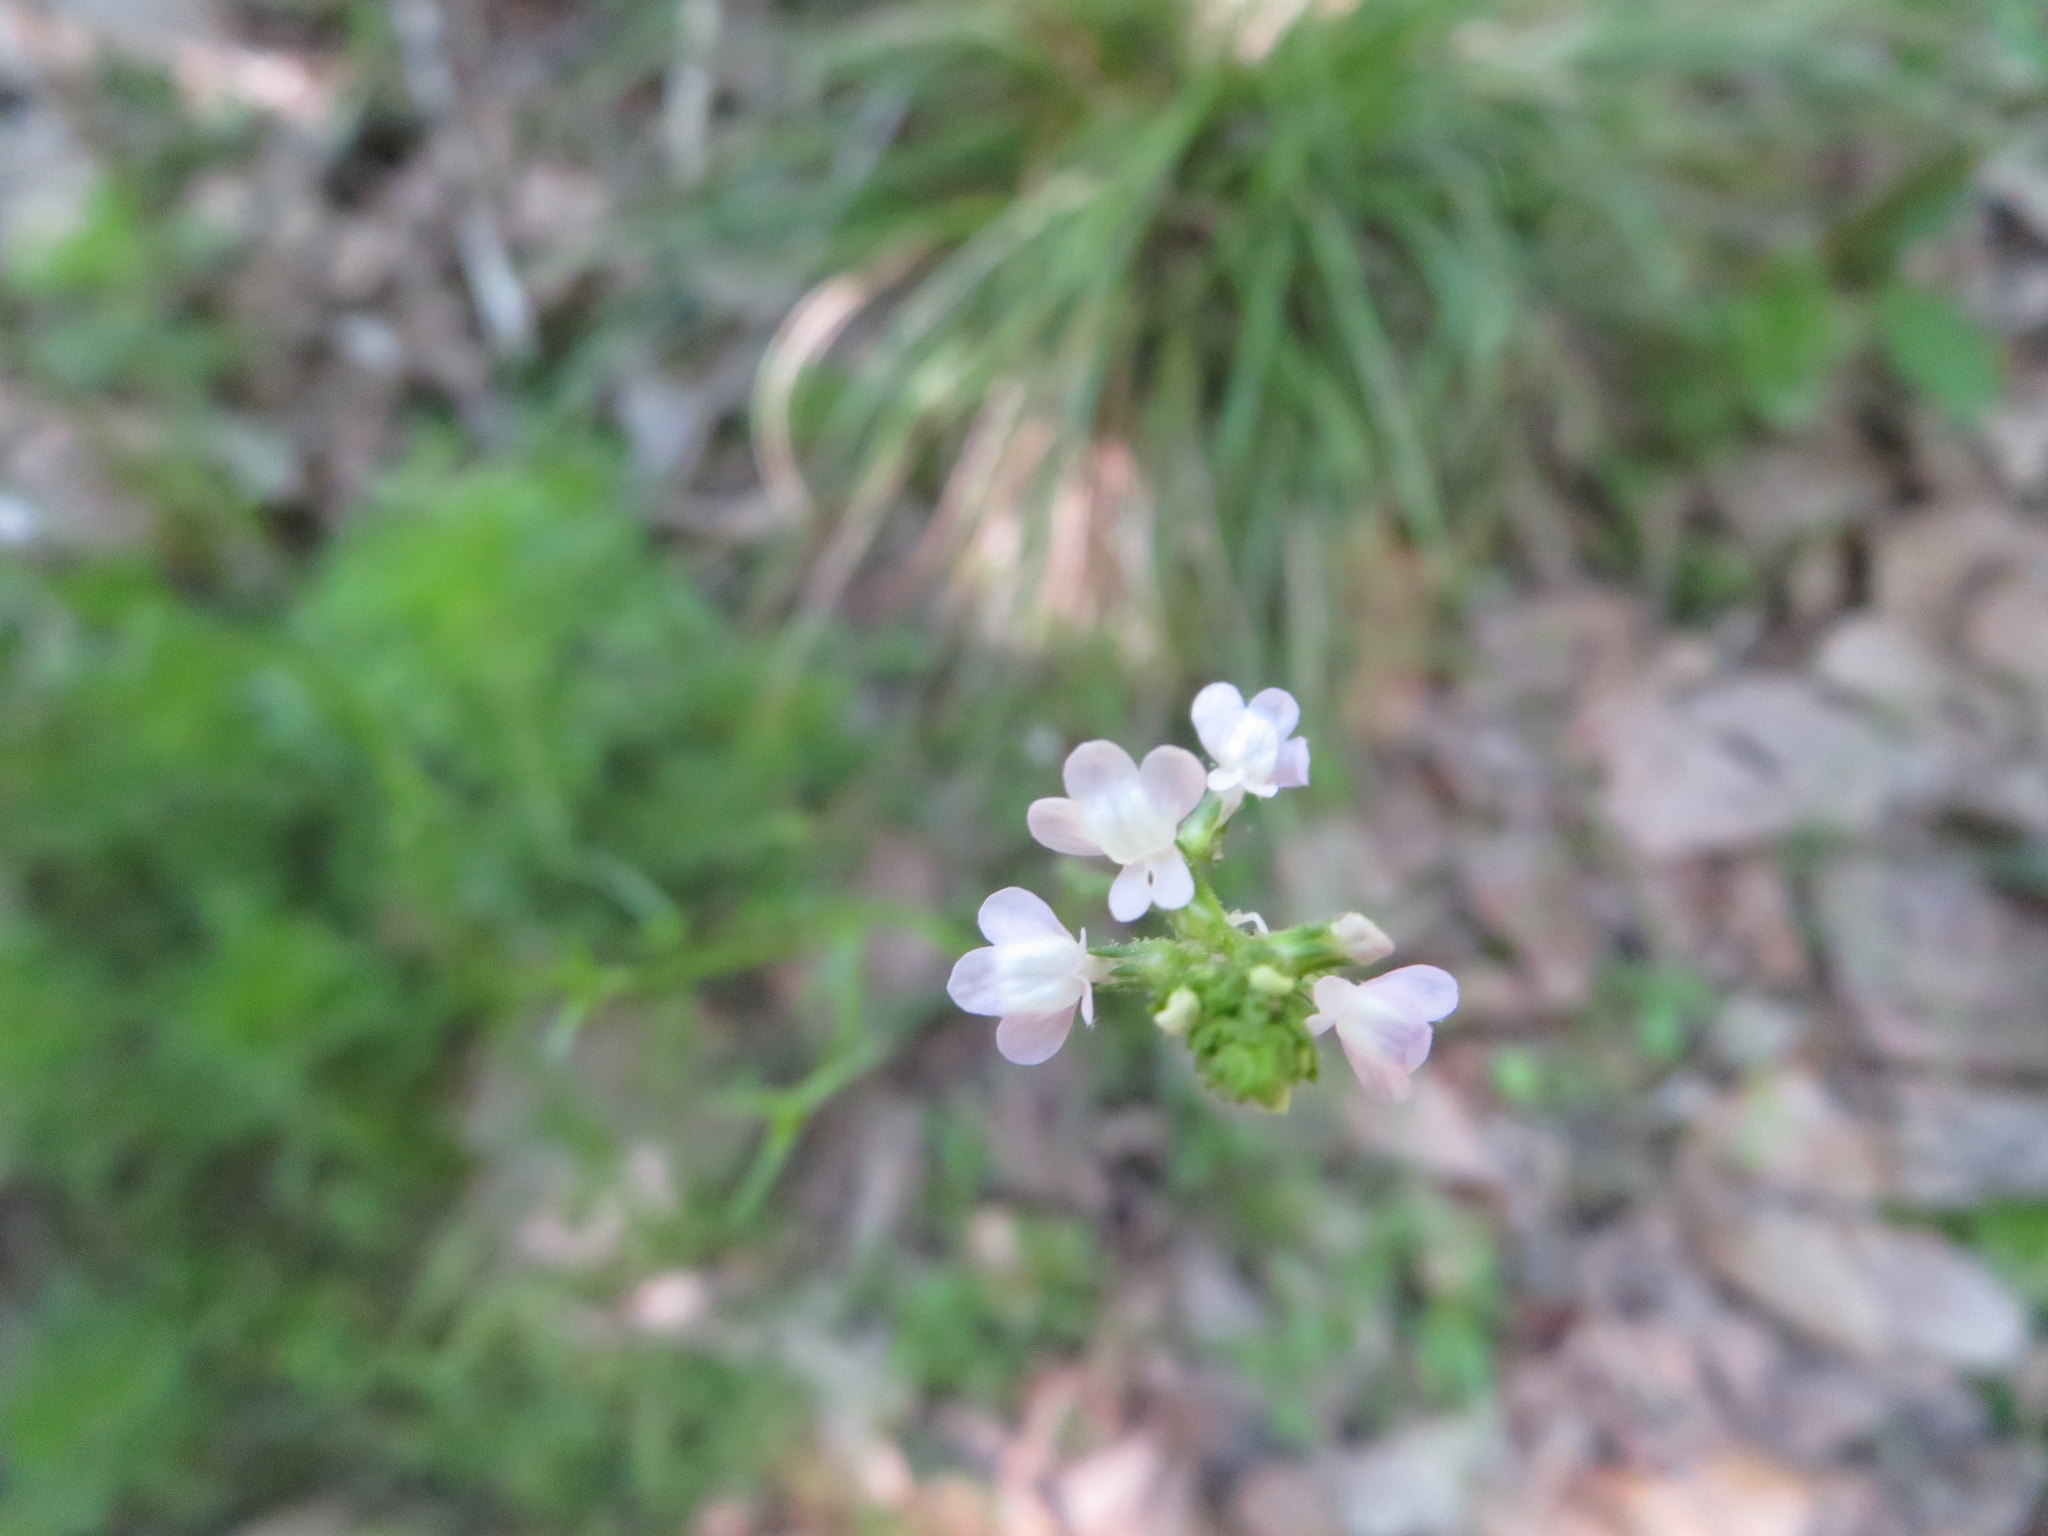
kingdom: Plantae
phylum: Tracheophyta
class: Magnoliopsida
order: Lamiales
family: Plantaginaceae
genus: Nuttallanthus
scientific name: Nuttallanthus canadensis
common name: Blue toadflax
